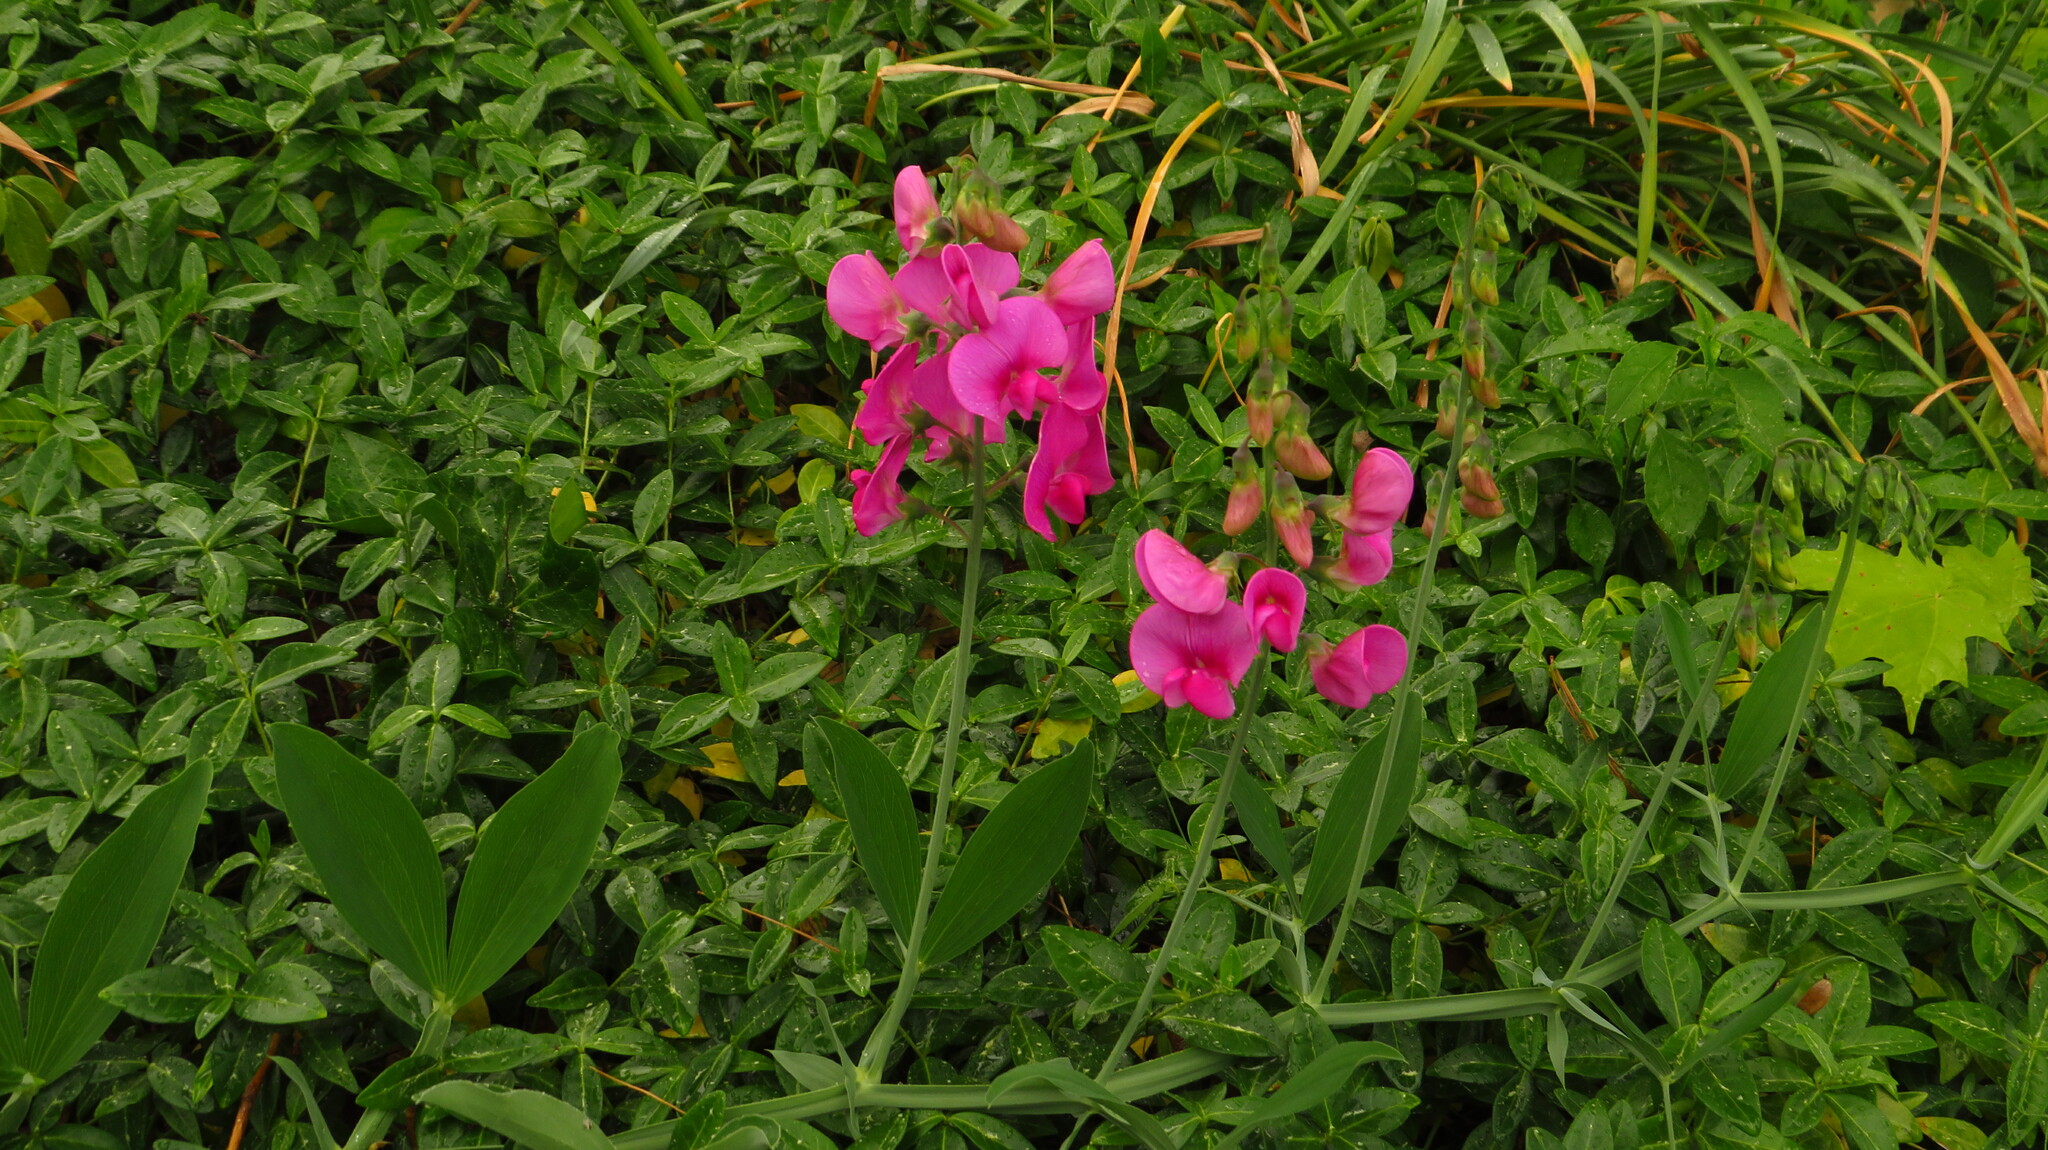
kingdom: Plantae
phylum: Tracheophyta
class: Magnoliopsida
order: Fabales
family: Fabaceae
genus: Lathyrus
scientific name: Lathyrus latifolius
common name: Perennial pea
